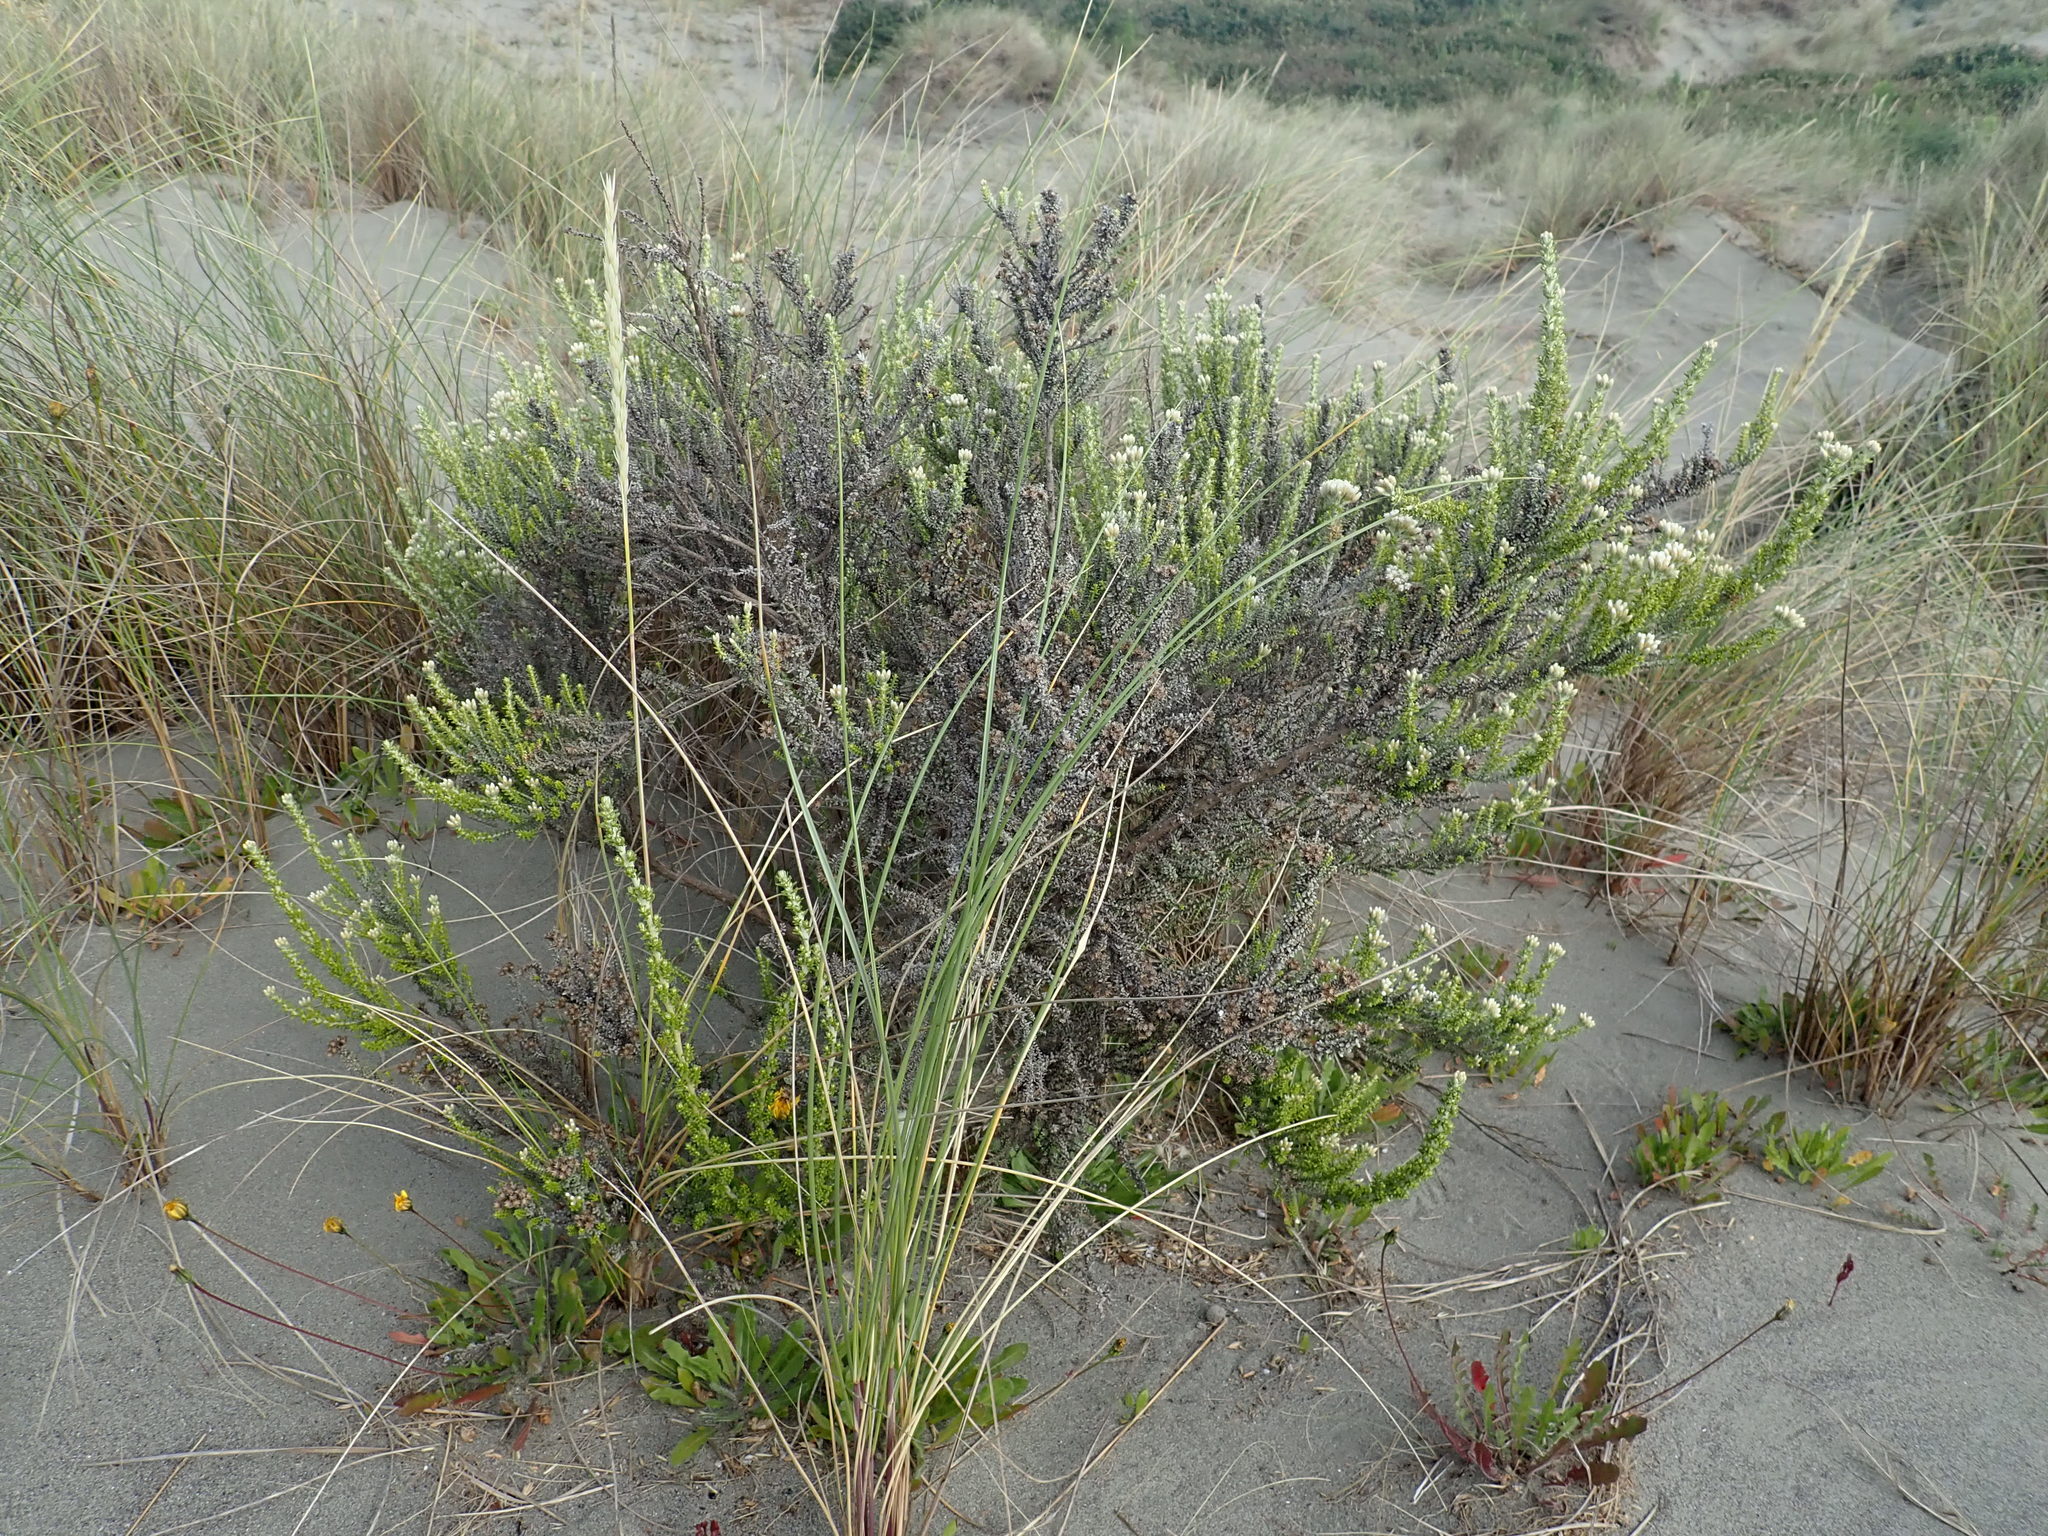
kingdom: Plantae
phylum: Tracheophyta
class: Magnoliopsida
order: Asterales
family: Asteraceae
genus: Ozothamnus
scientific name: Ozothamnus leptophyllus
